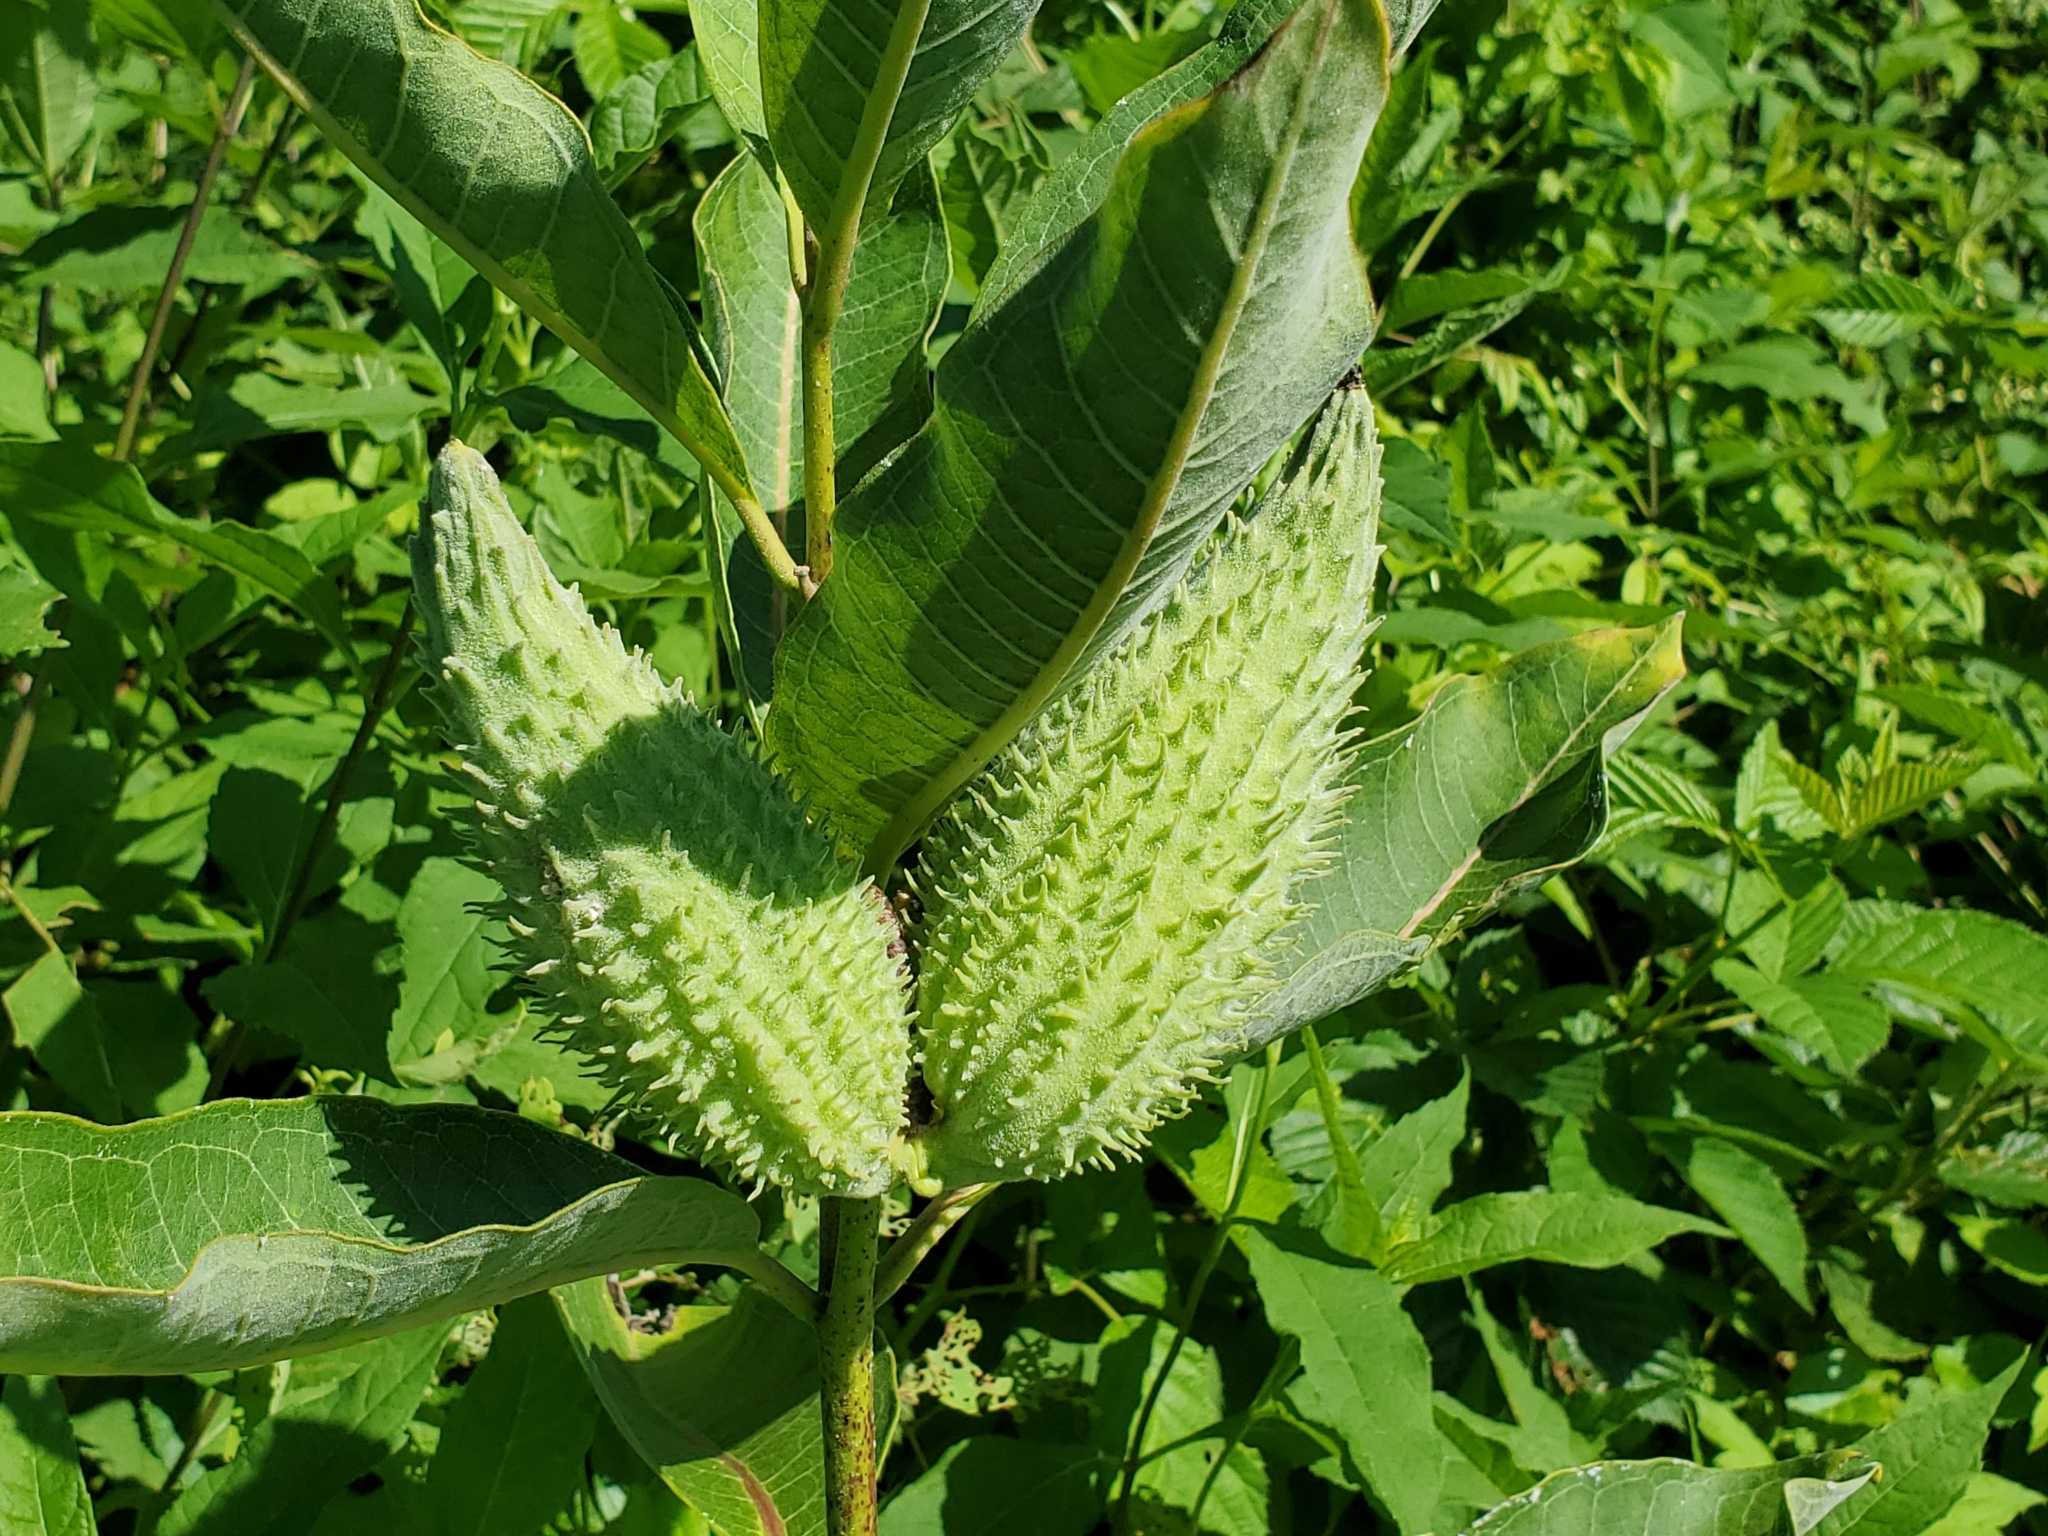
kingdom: Plantae
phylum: Tracheophyta
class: Magnoliopsida
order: Gentianales
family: Apocynaceae
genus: Asclepias
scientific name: Asclepias syriaca
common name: Common milkweed
